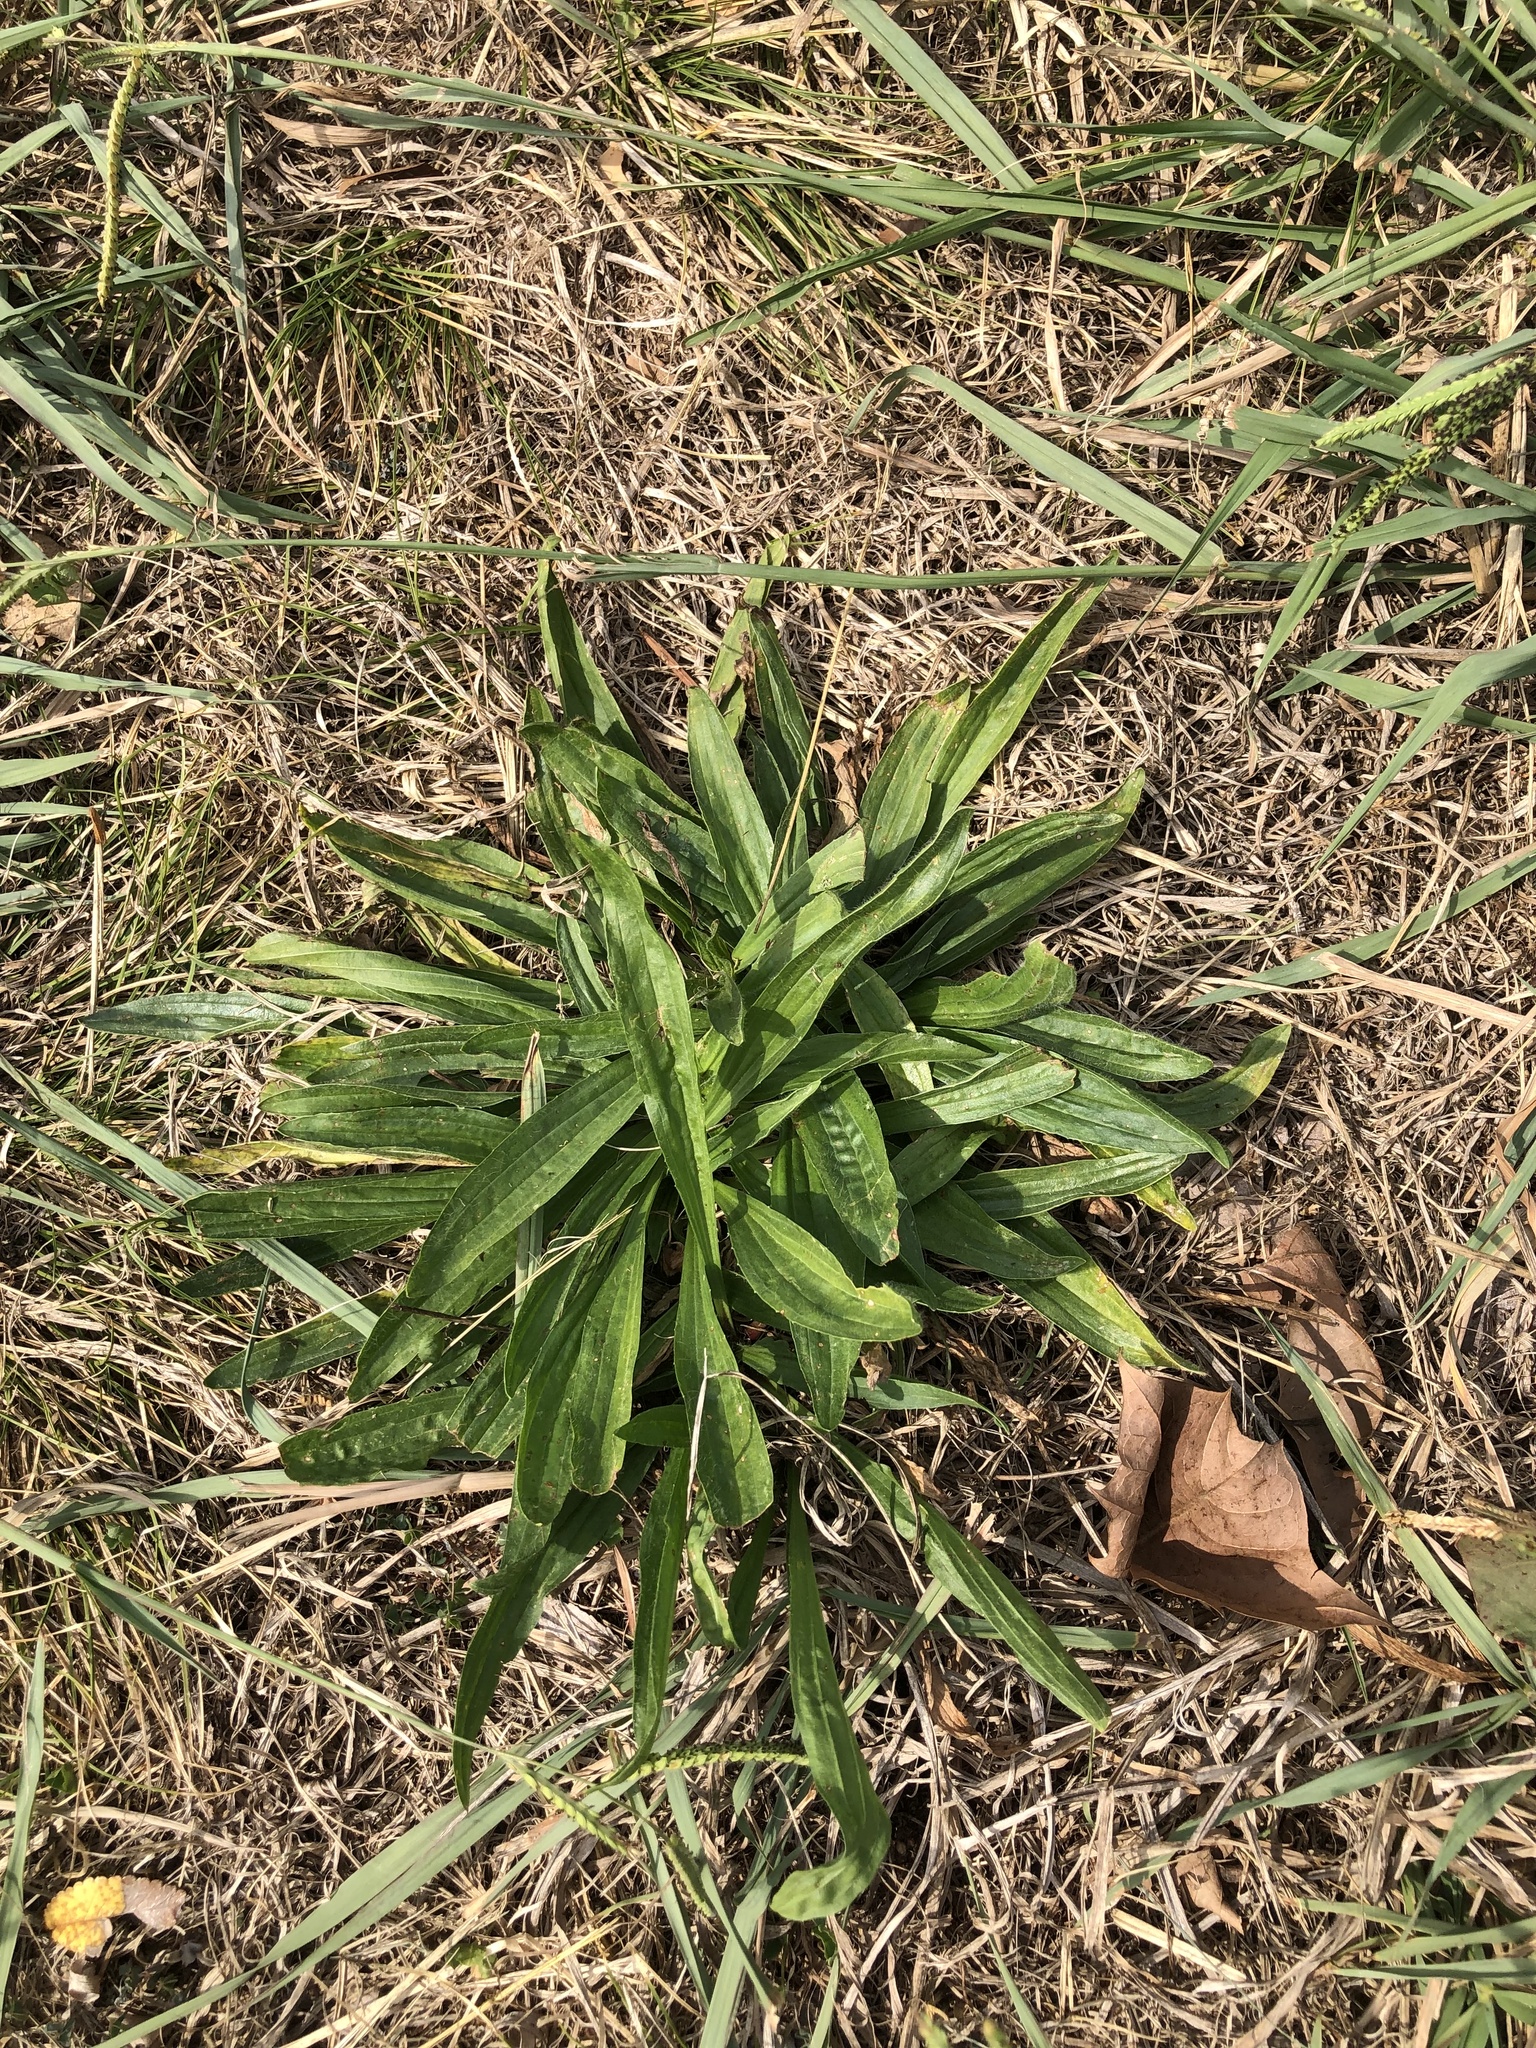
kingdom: Plantae
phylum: Tracheophyta
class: Magnoliopsida
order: Lamiales
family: Plantaginaceae
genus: Plantago
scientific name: Plantago lanceolata
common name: Ribwort plantain
